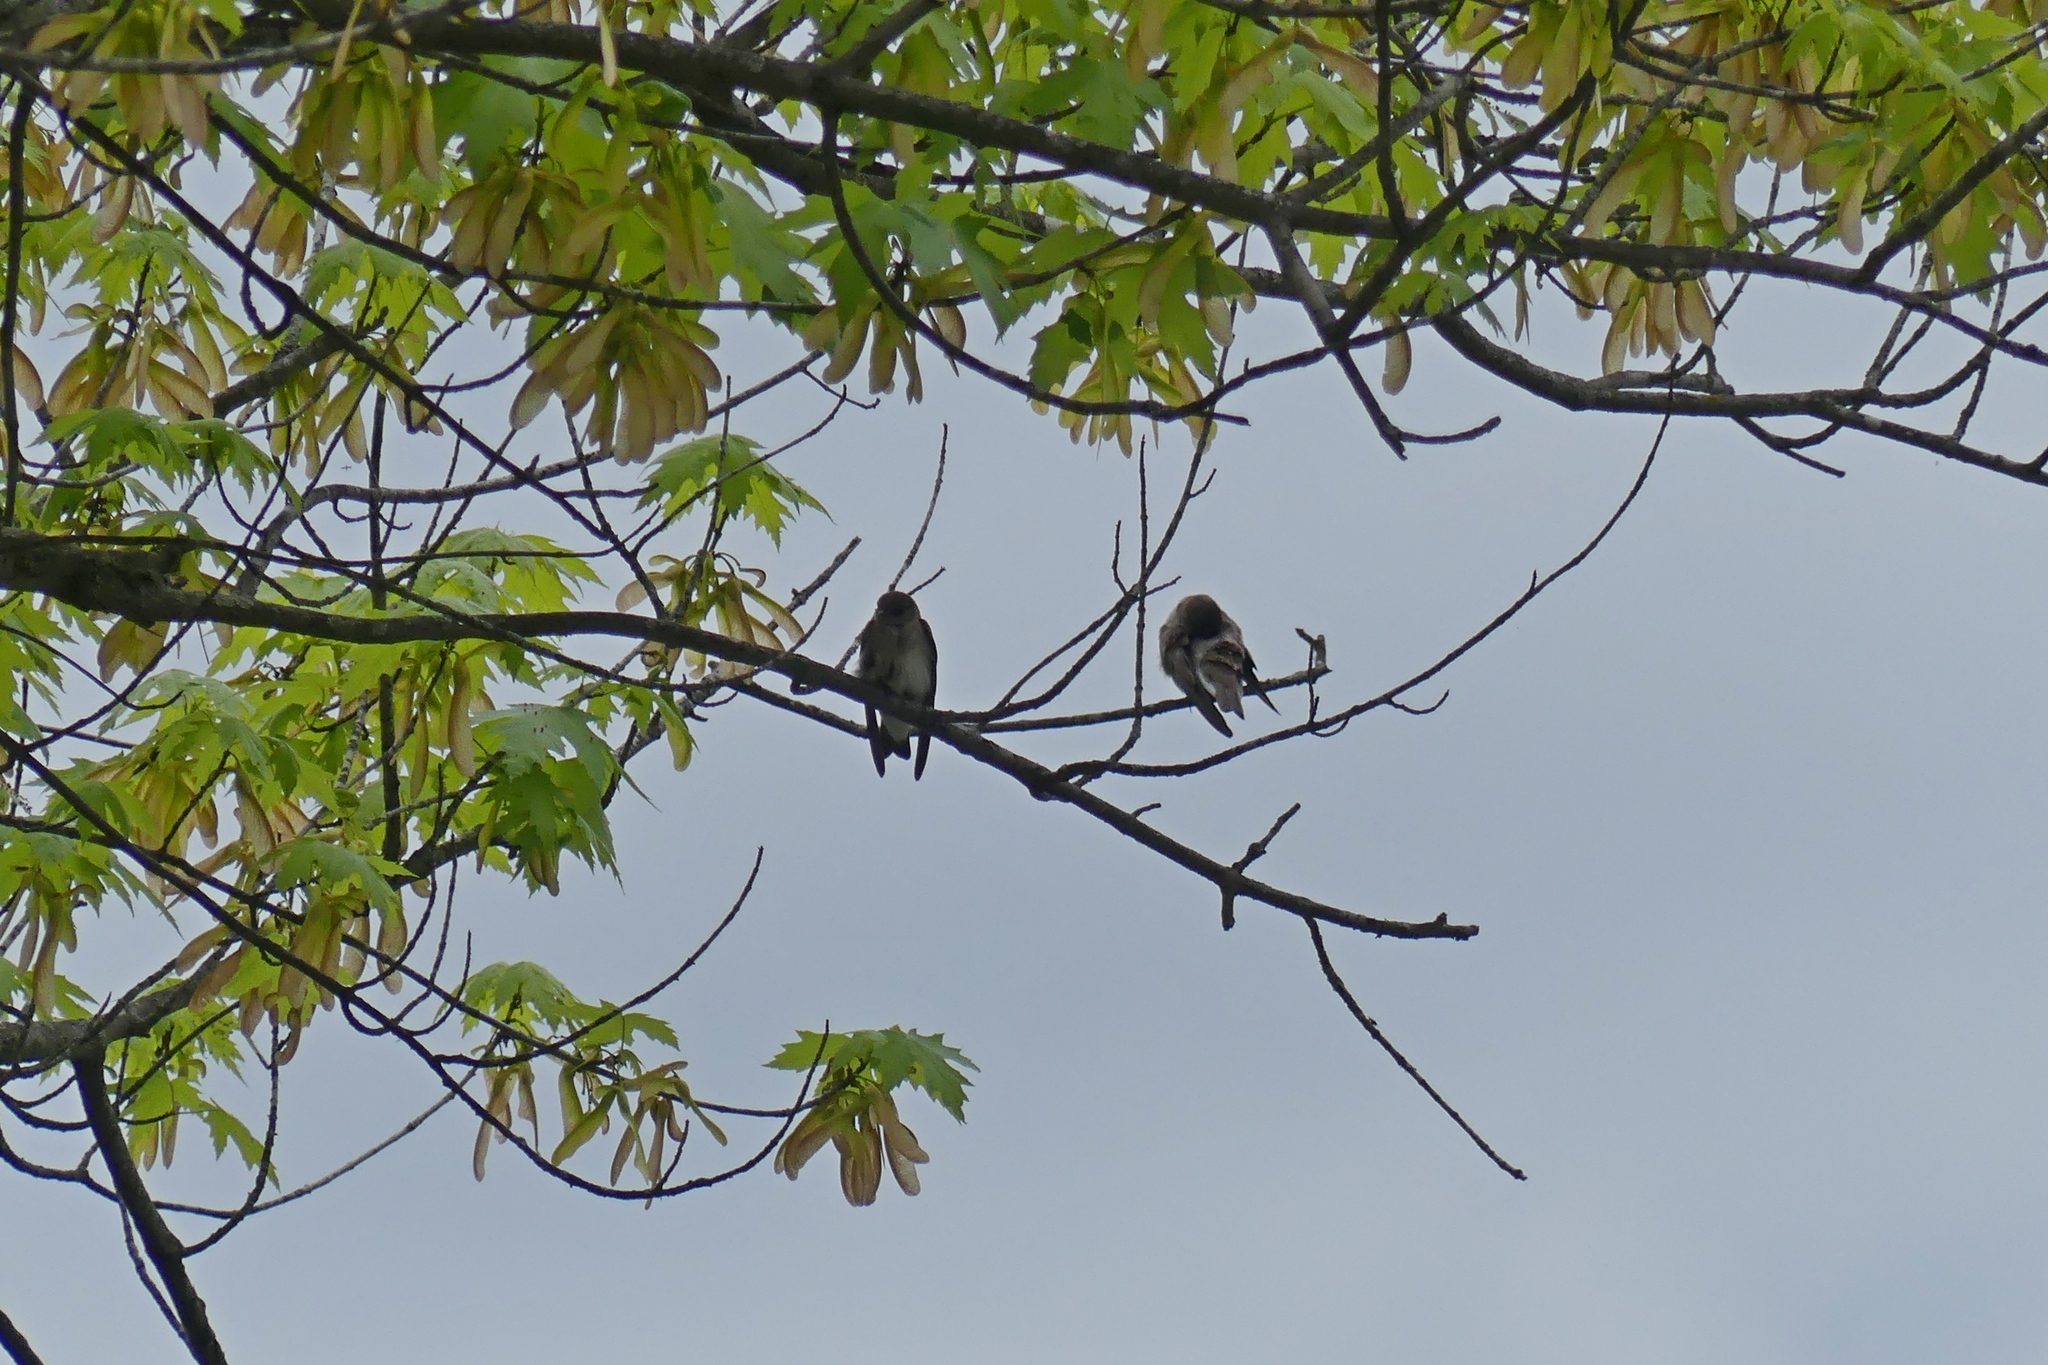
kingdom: Animalia
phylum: Chordata
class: Aves
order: Passeriformes
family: Hirundinidae
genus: Stelgidopteryx
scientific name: Stelgidopteryx serripennis
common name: Northern rough-winged swallow
